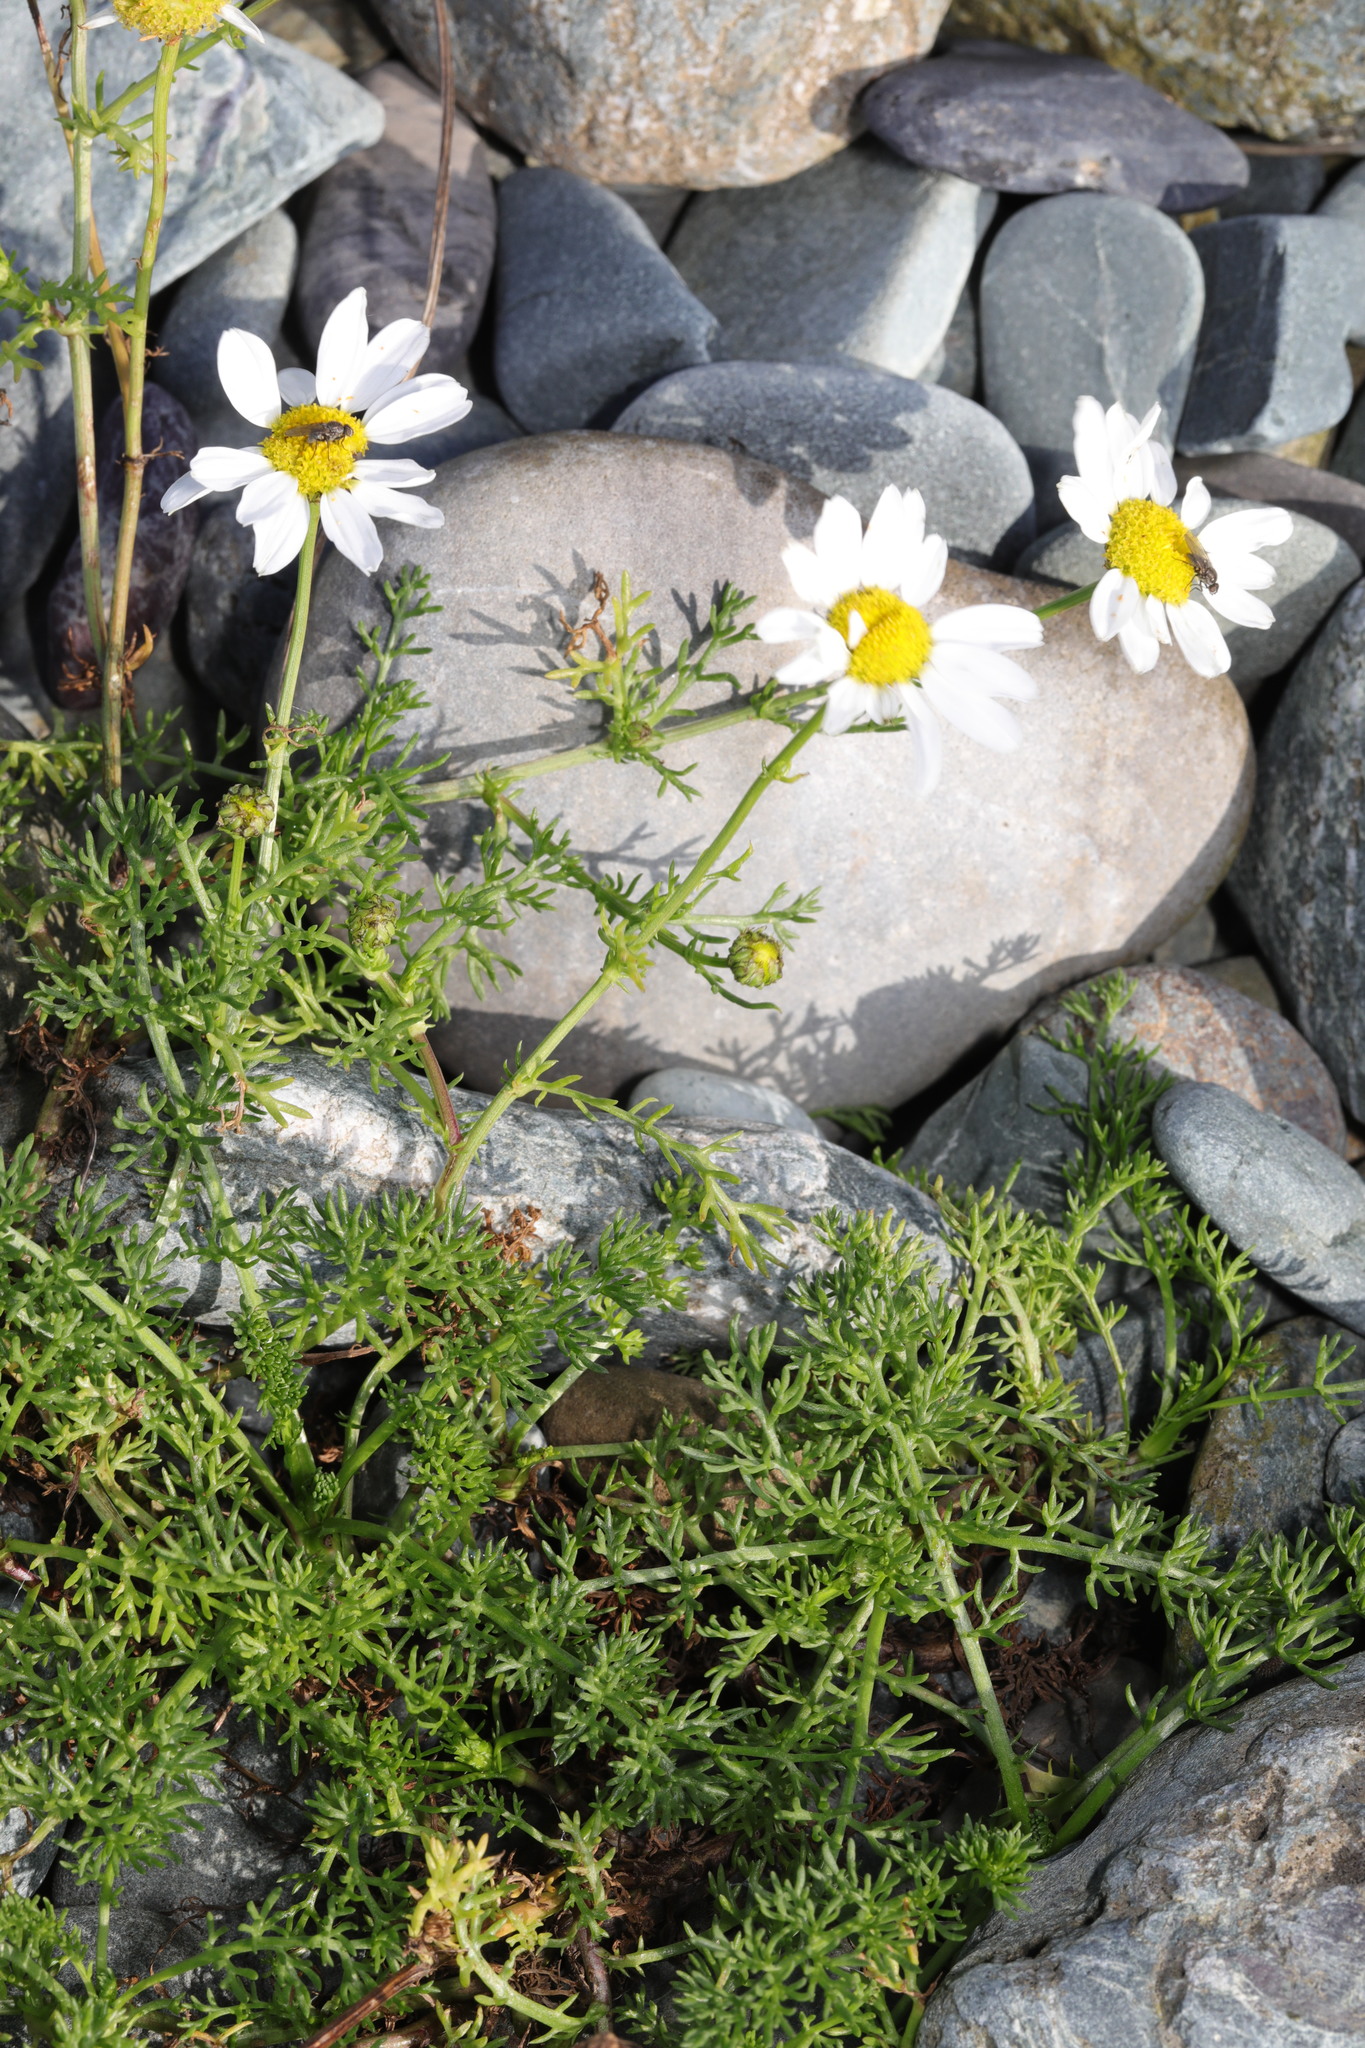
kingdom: Plantae
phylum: Tracheophyta
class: Magnoliopsida
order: Asterales
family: Asteraceae
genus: Tripleurospermum
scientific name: Tripleurospermum maritimum
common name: Sea mayweed
